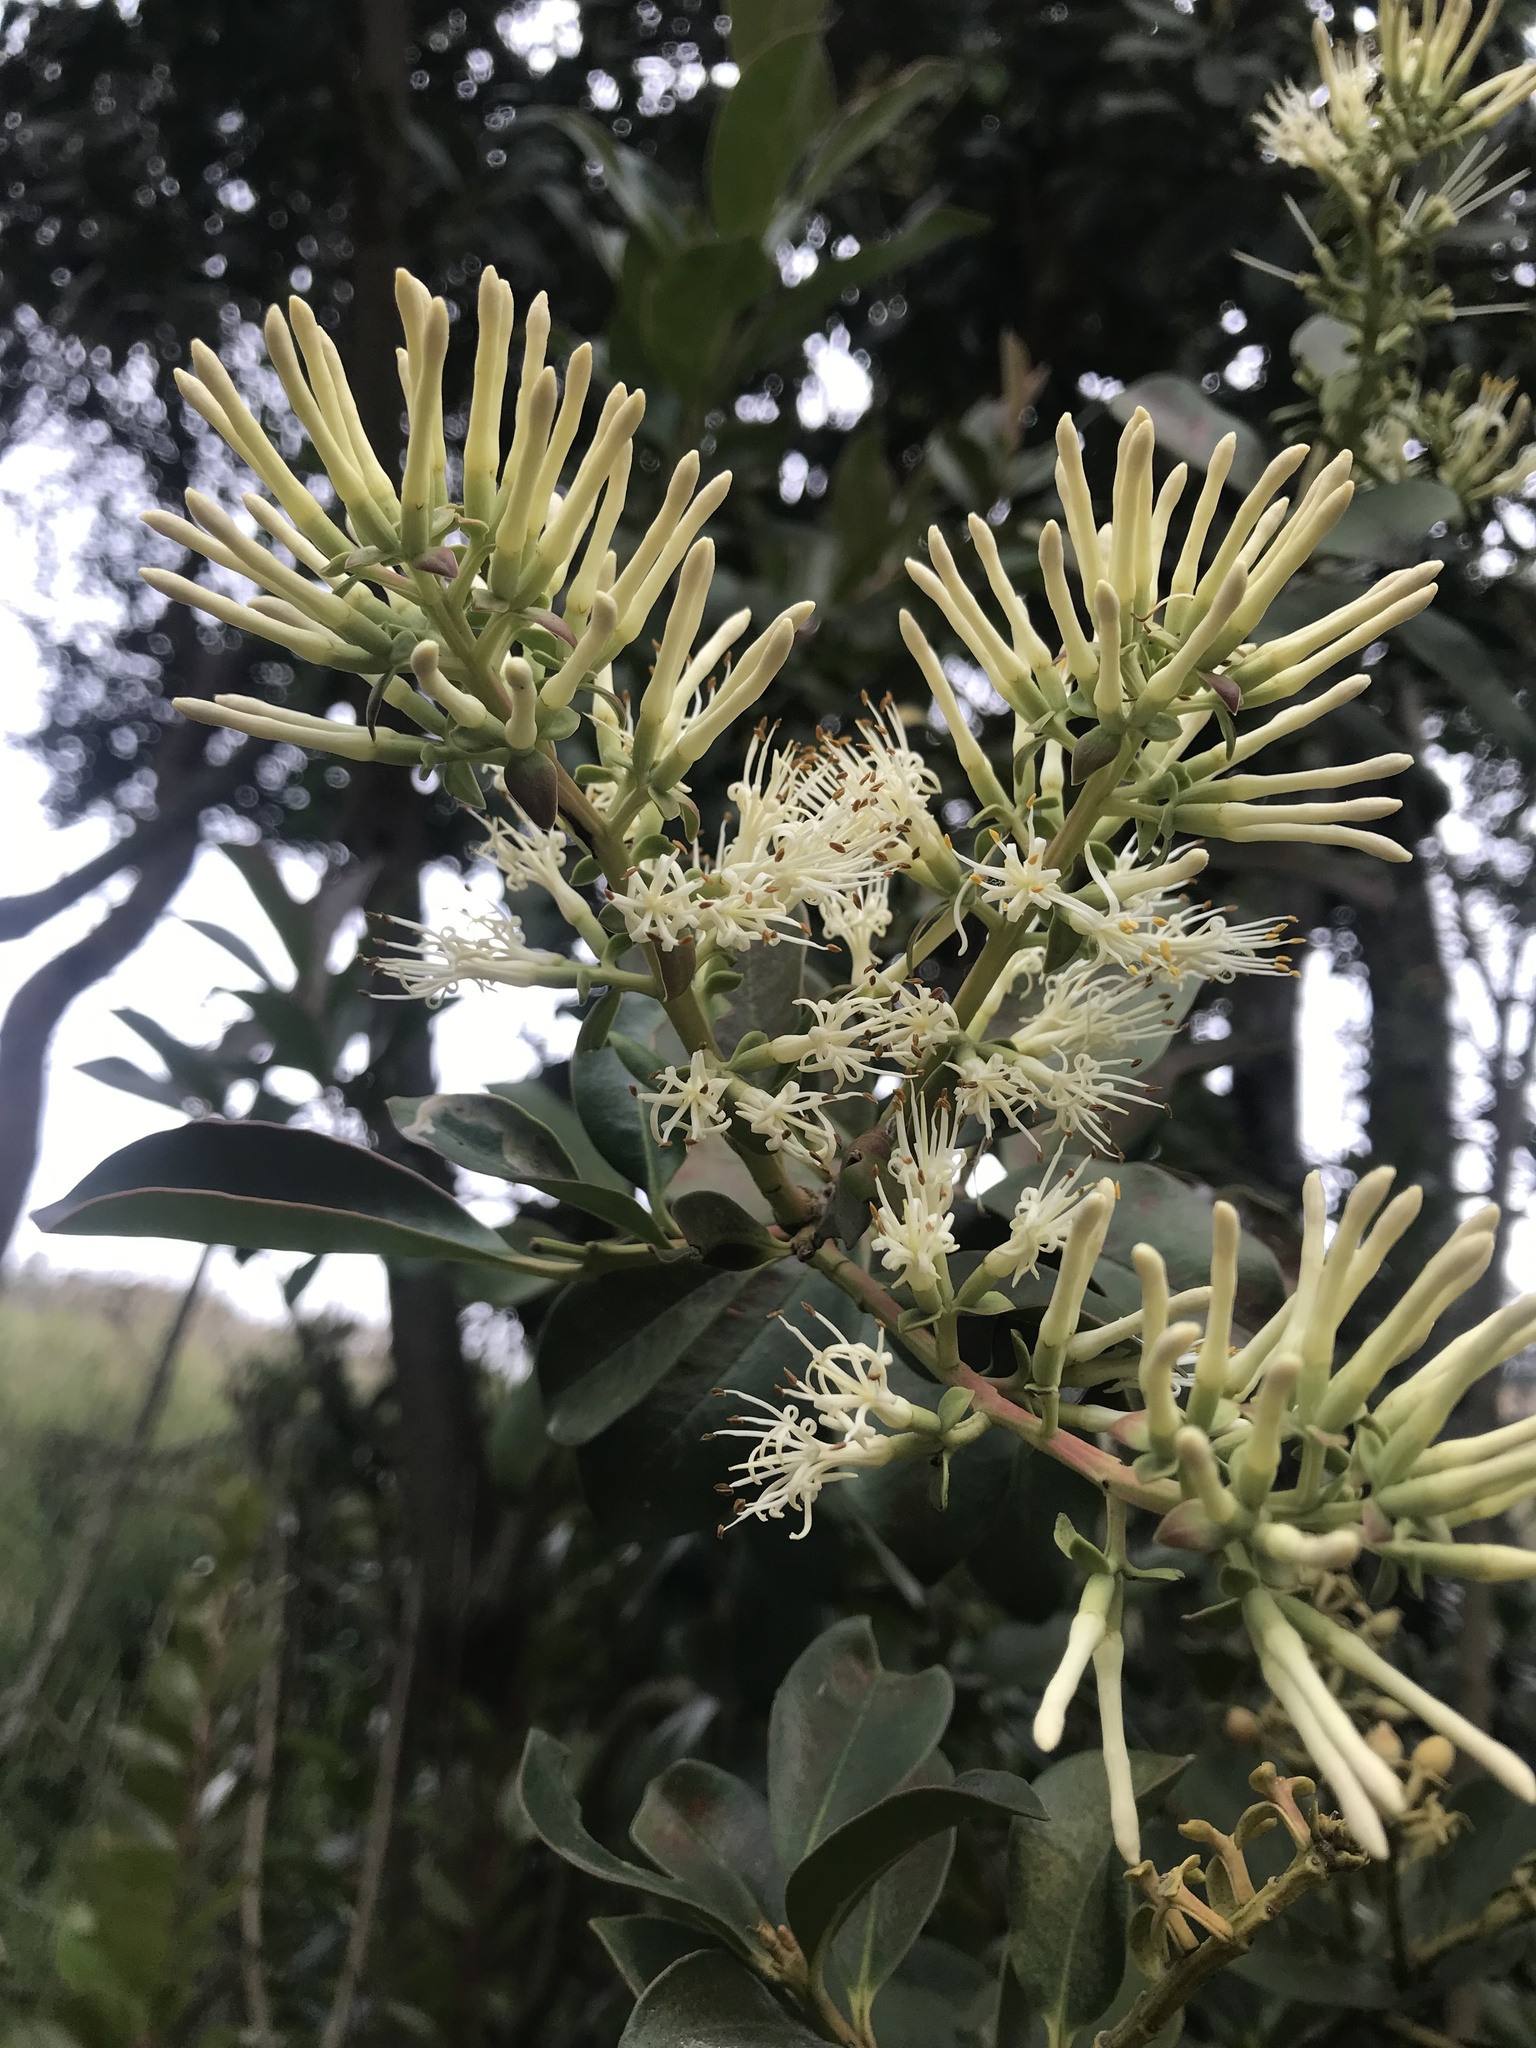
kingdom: Plantae
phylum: Tracheophyta
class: Magnoliopsida
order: Santalales
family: Loranthaceae
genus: Gaiadendron
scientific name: Gaiadendron punctatum
